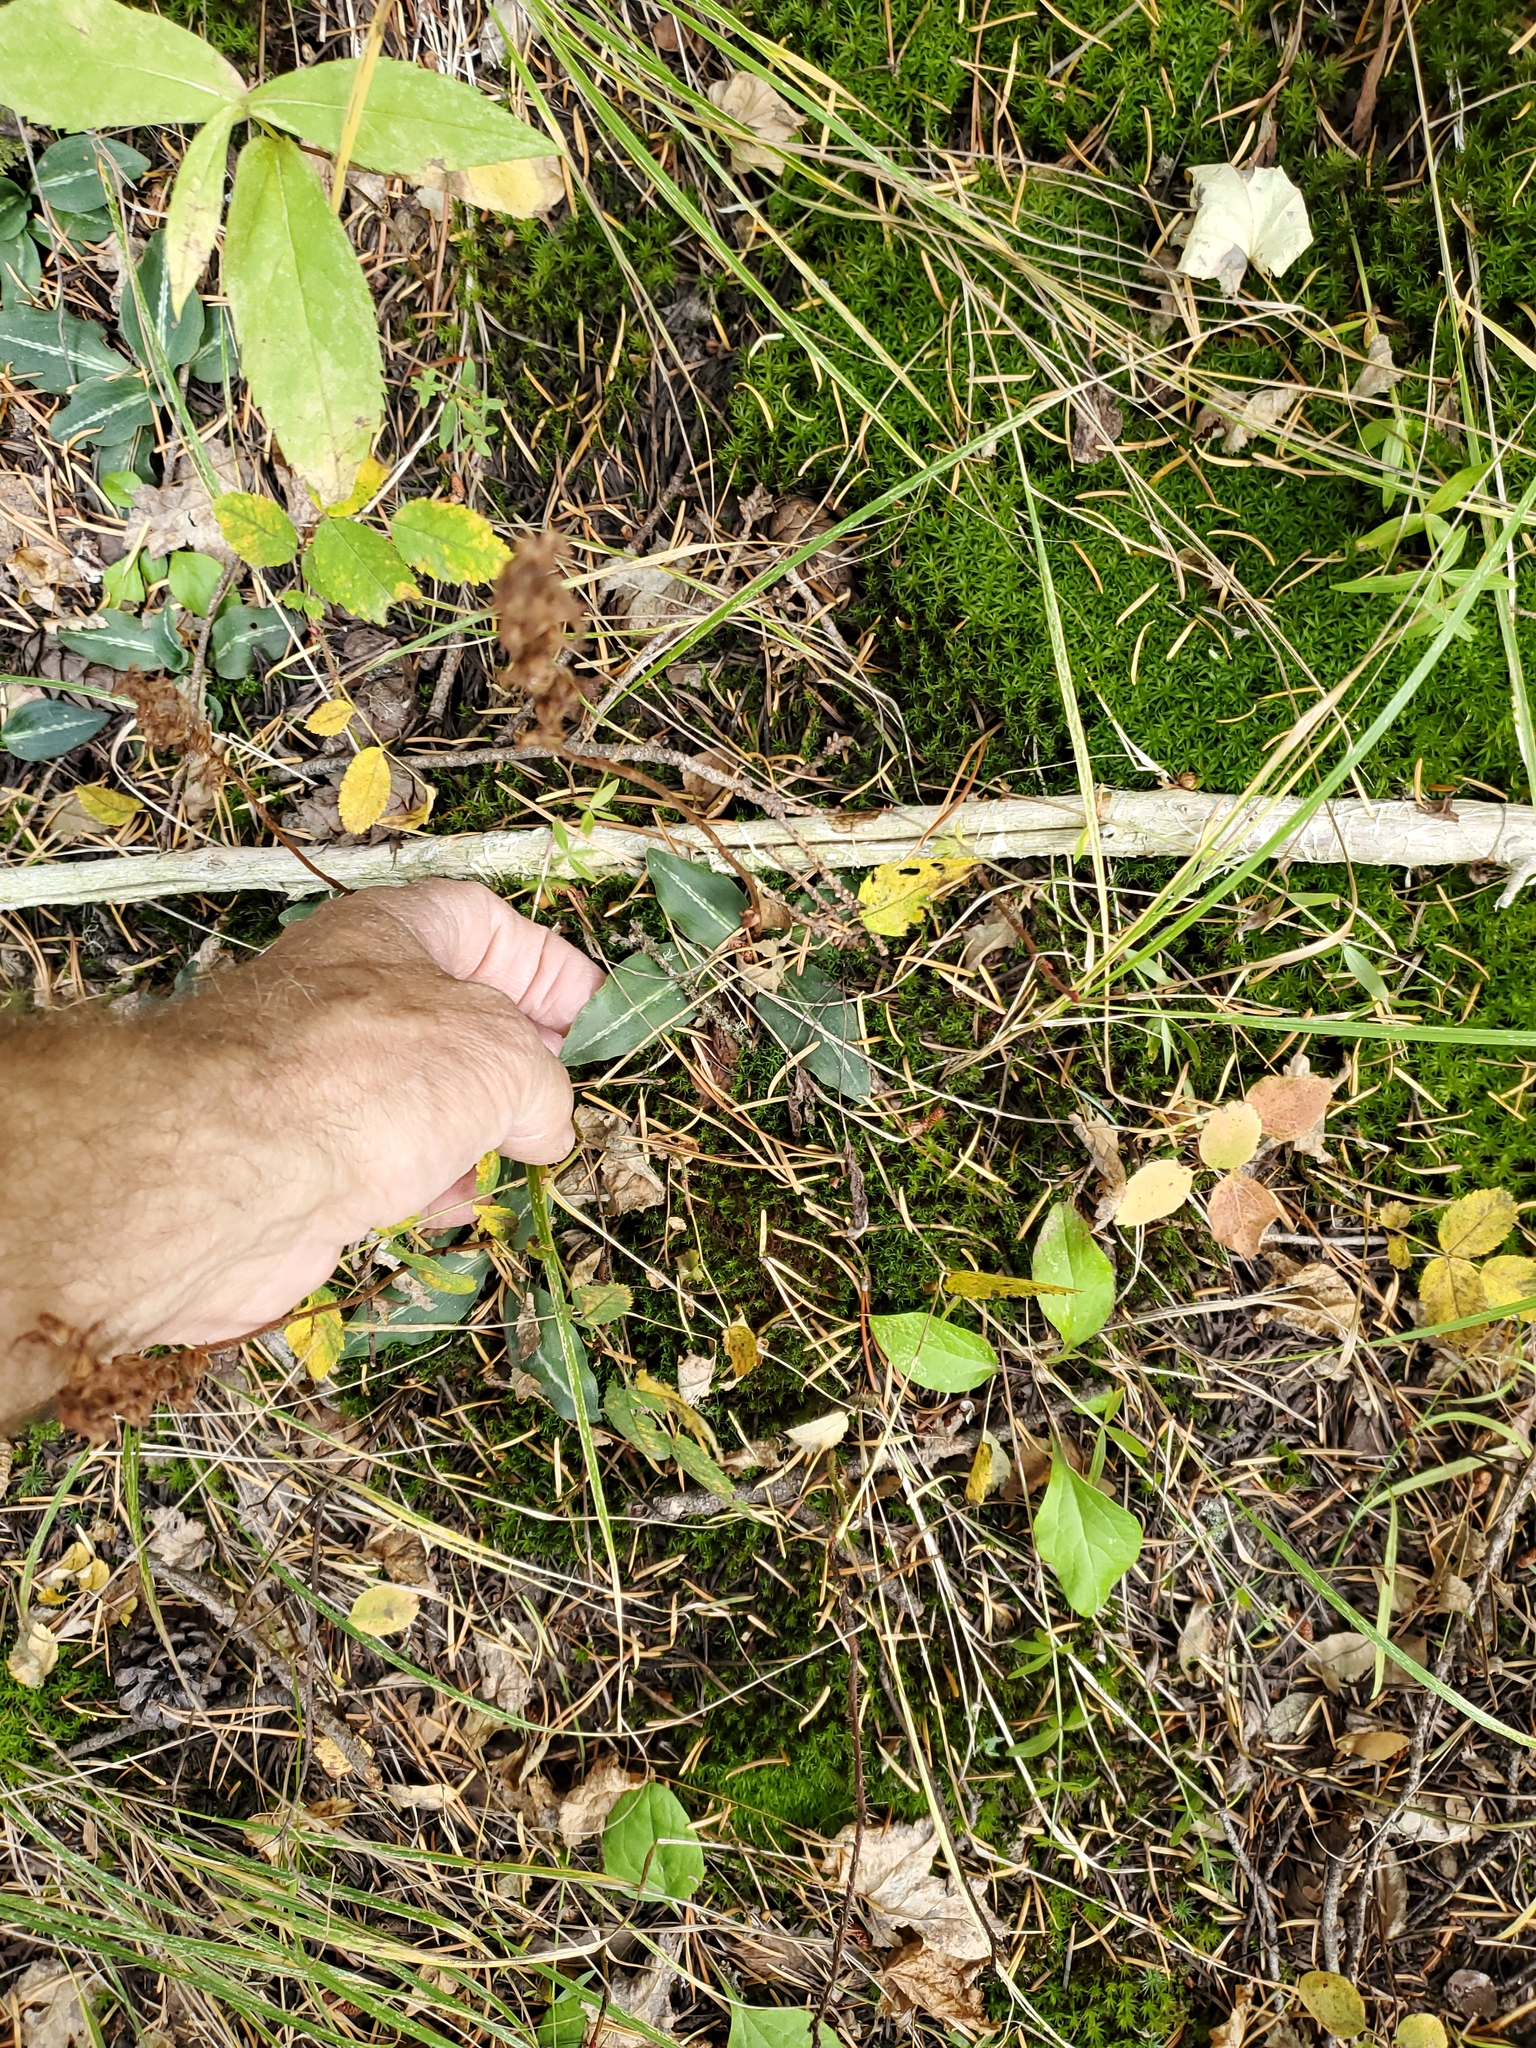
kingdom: Plantae
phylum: Tracheophyta
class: Liliopsida
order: Asparagales
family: Orchidaceae
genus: Goodyera
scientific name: Goodyera oblongifolia
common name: Giant rattlesnake-plantain
